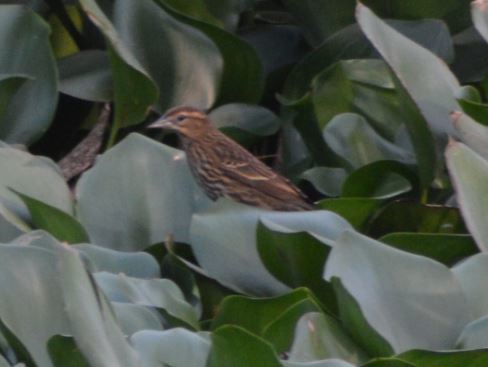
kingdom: Animalia
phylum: Chordata
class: Aves
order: Passeriformes
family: Icteridae
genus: Agelaius
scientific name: Agelaius phoeniceus
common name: Red-winged blackbird
